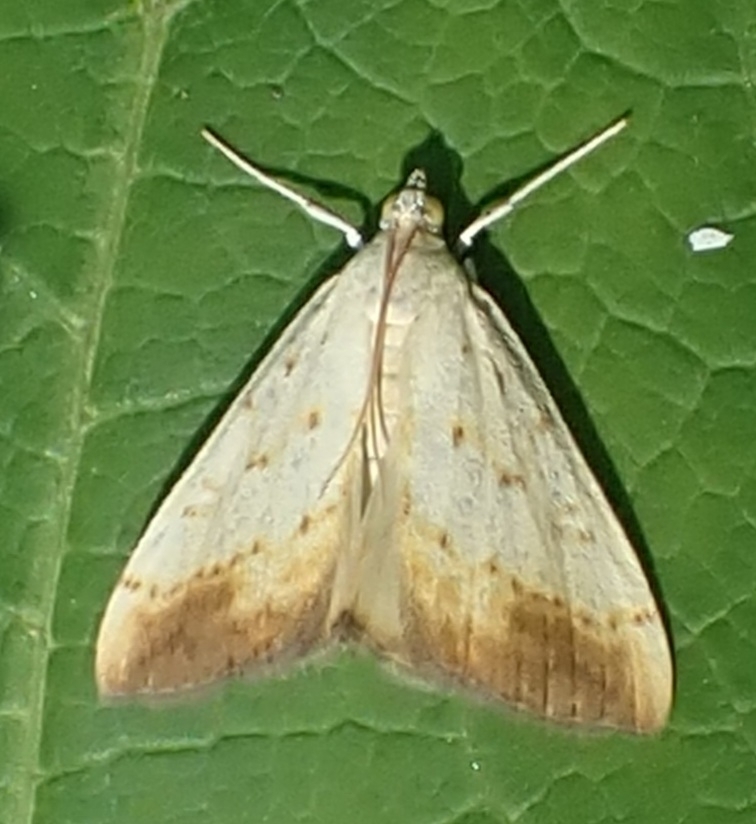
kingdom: Animalia
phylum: Arthropoda
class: Insecta
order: Lepidoptera
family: Crambidae
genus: Evergestis
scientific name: Evergestis extimalis
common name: Marbled yellow pearl
